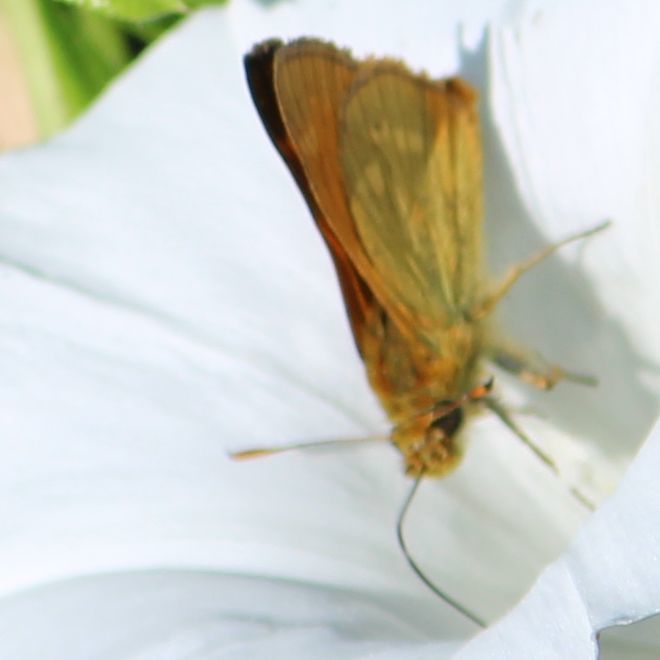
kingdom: Animalia
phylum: Arthropoda
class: Insecta
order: Lepidoptera
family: Hesperiidae
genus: Ochlodes
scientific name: Ochlodes venata
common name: Large skipper
